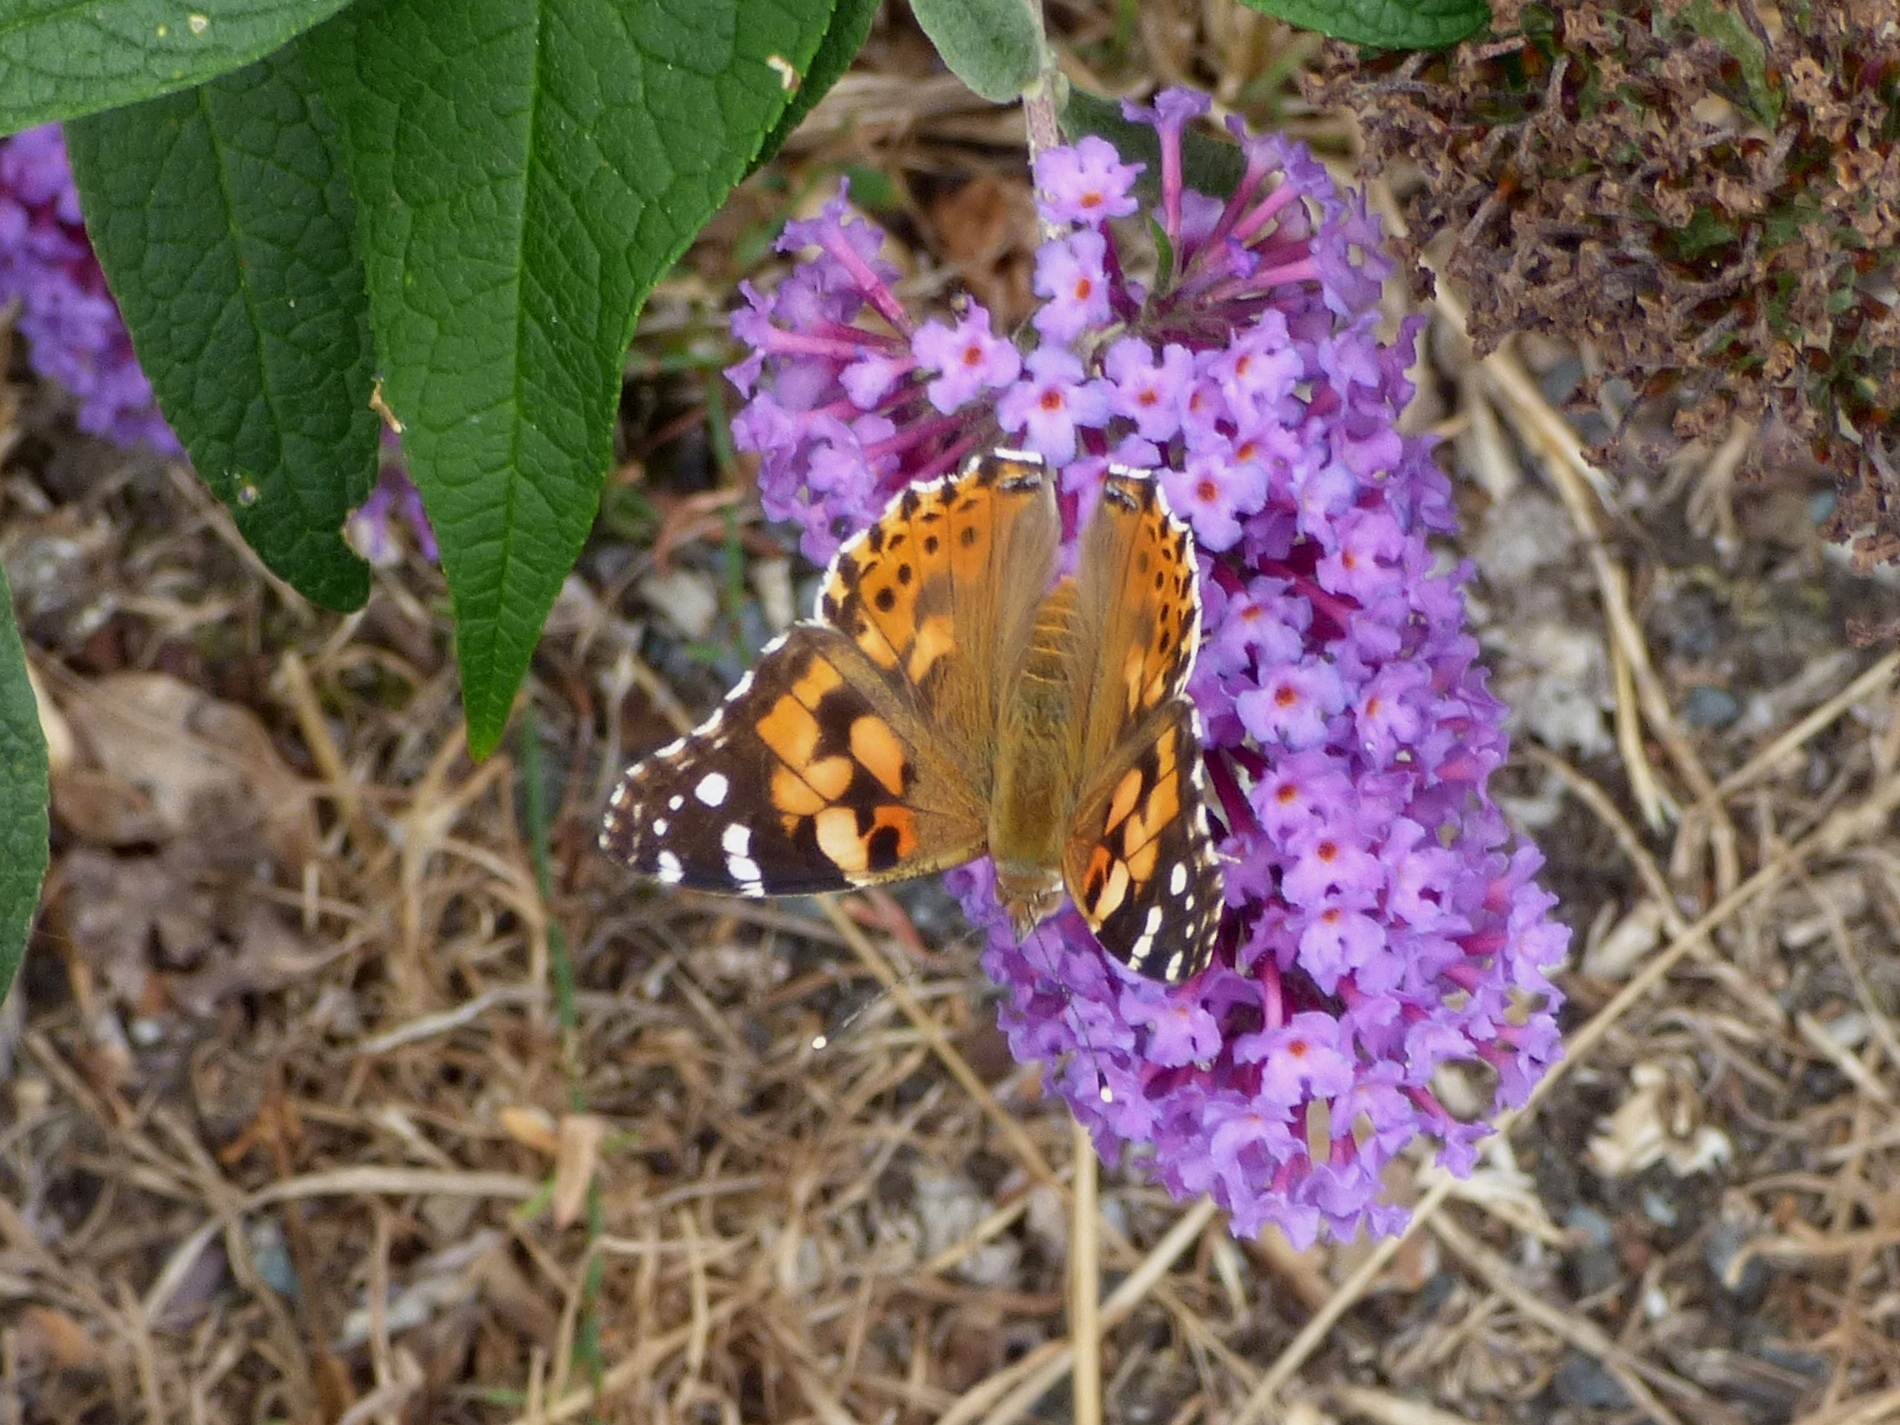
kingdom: Animalia
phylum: Arthropoda
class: Insecta
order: Lepidoptera
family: Nymphalidae
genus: Vanessa
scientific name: Vanessa cardui
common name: Painted lady
